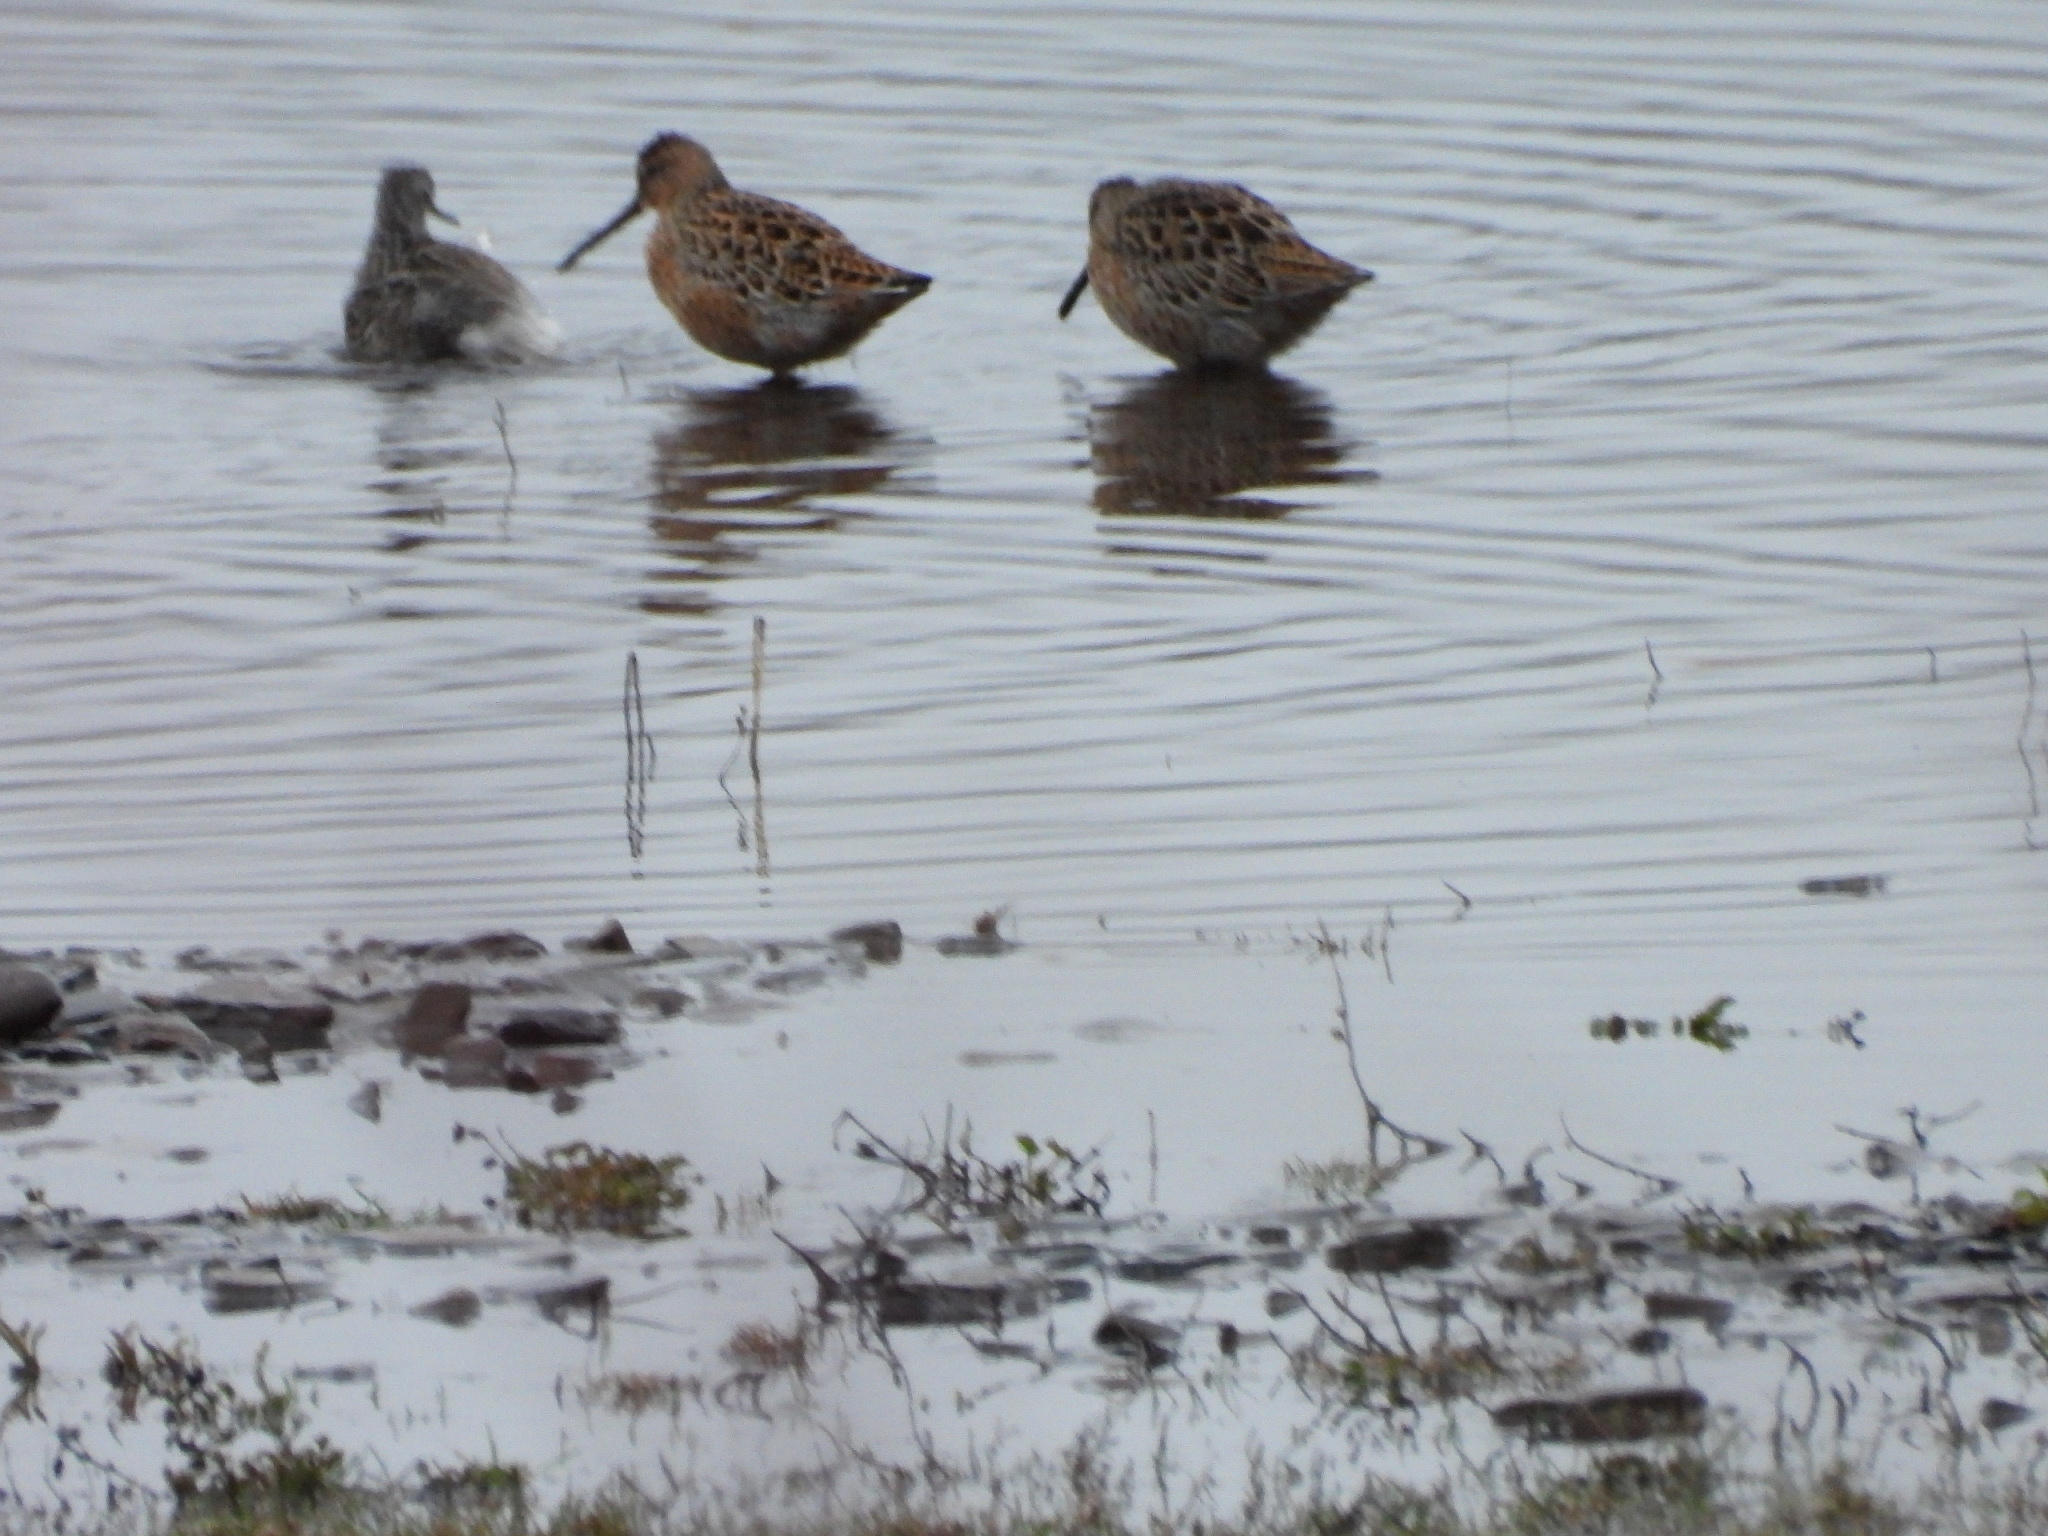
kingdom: Animalia
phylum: Chordata
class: Aves
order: Charadriiformes
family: Scolopacidae
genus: Limnodromus
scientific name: Limnodromus griseus
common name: Short-billed dowitcher
